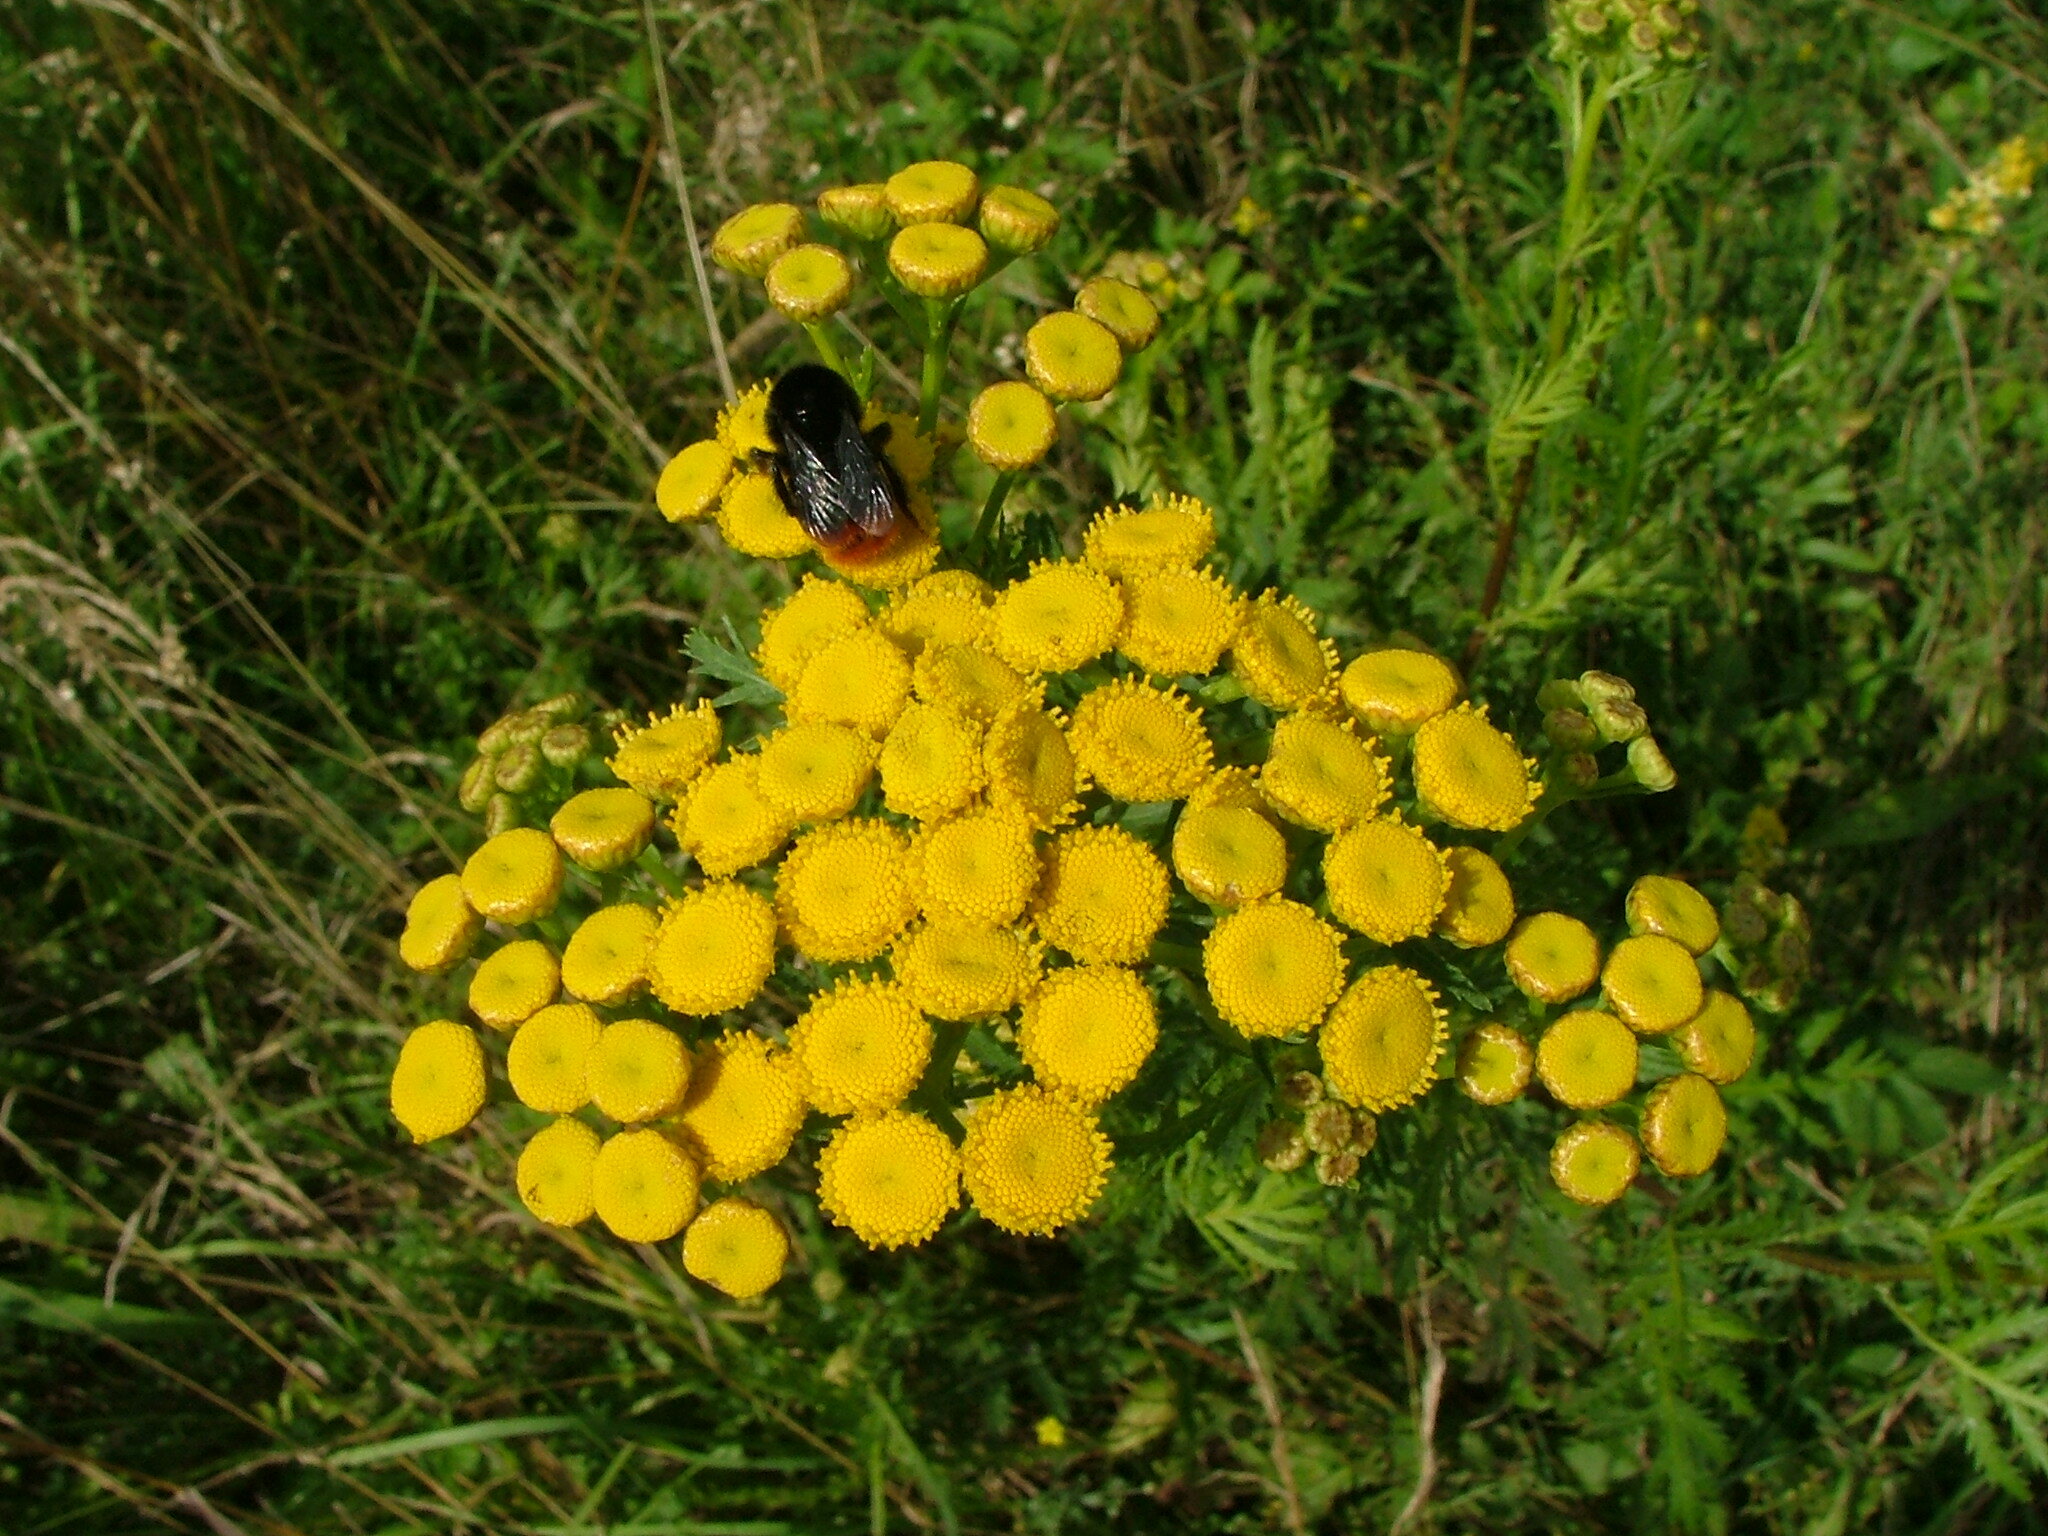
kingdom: Plantae
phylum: Tracheophyta
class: Magnoliopsida
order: Asterales
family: Asteraceae
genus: Tanacetum
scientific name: Tanacetum vulgare
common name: Common tansy
